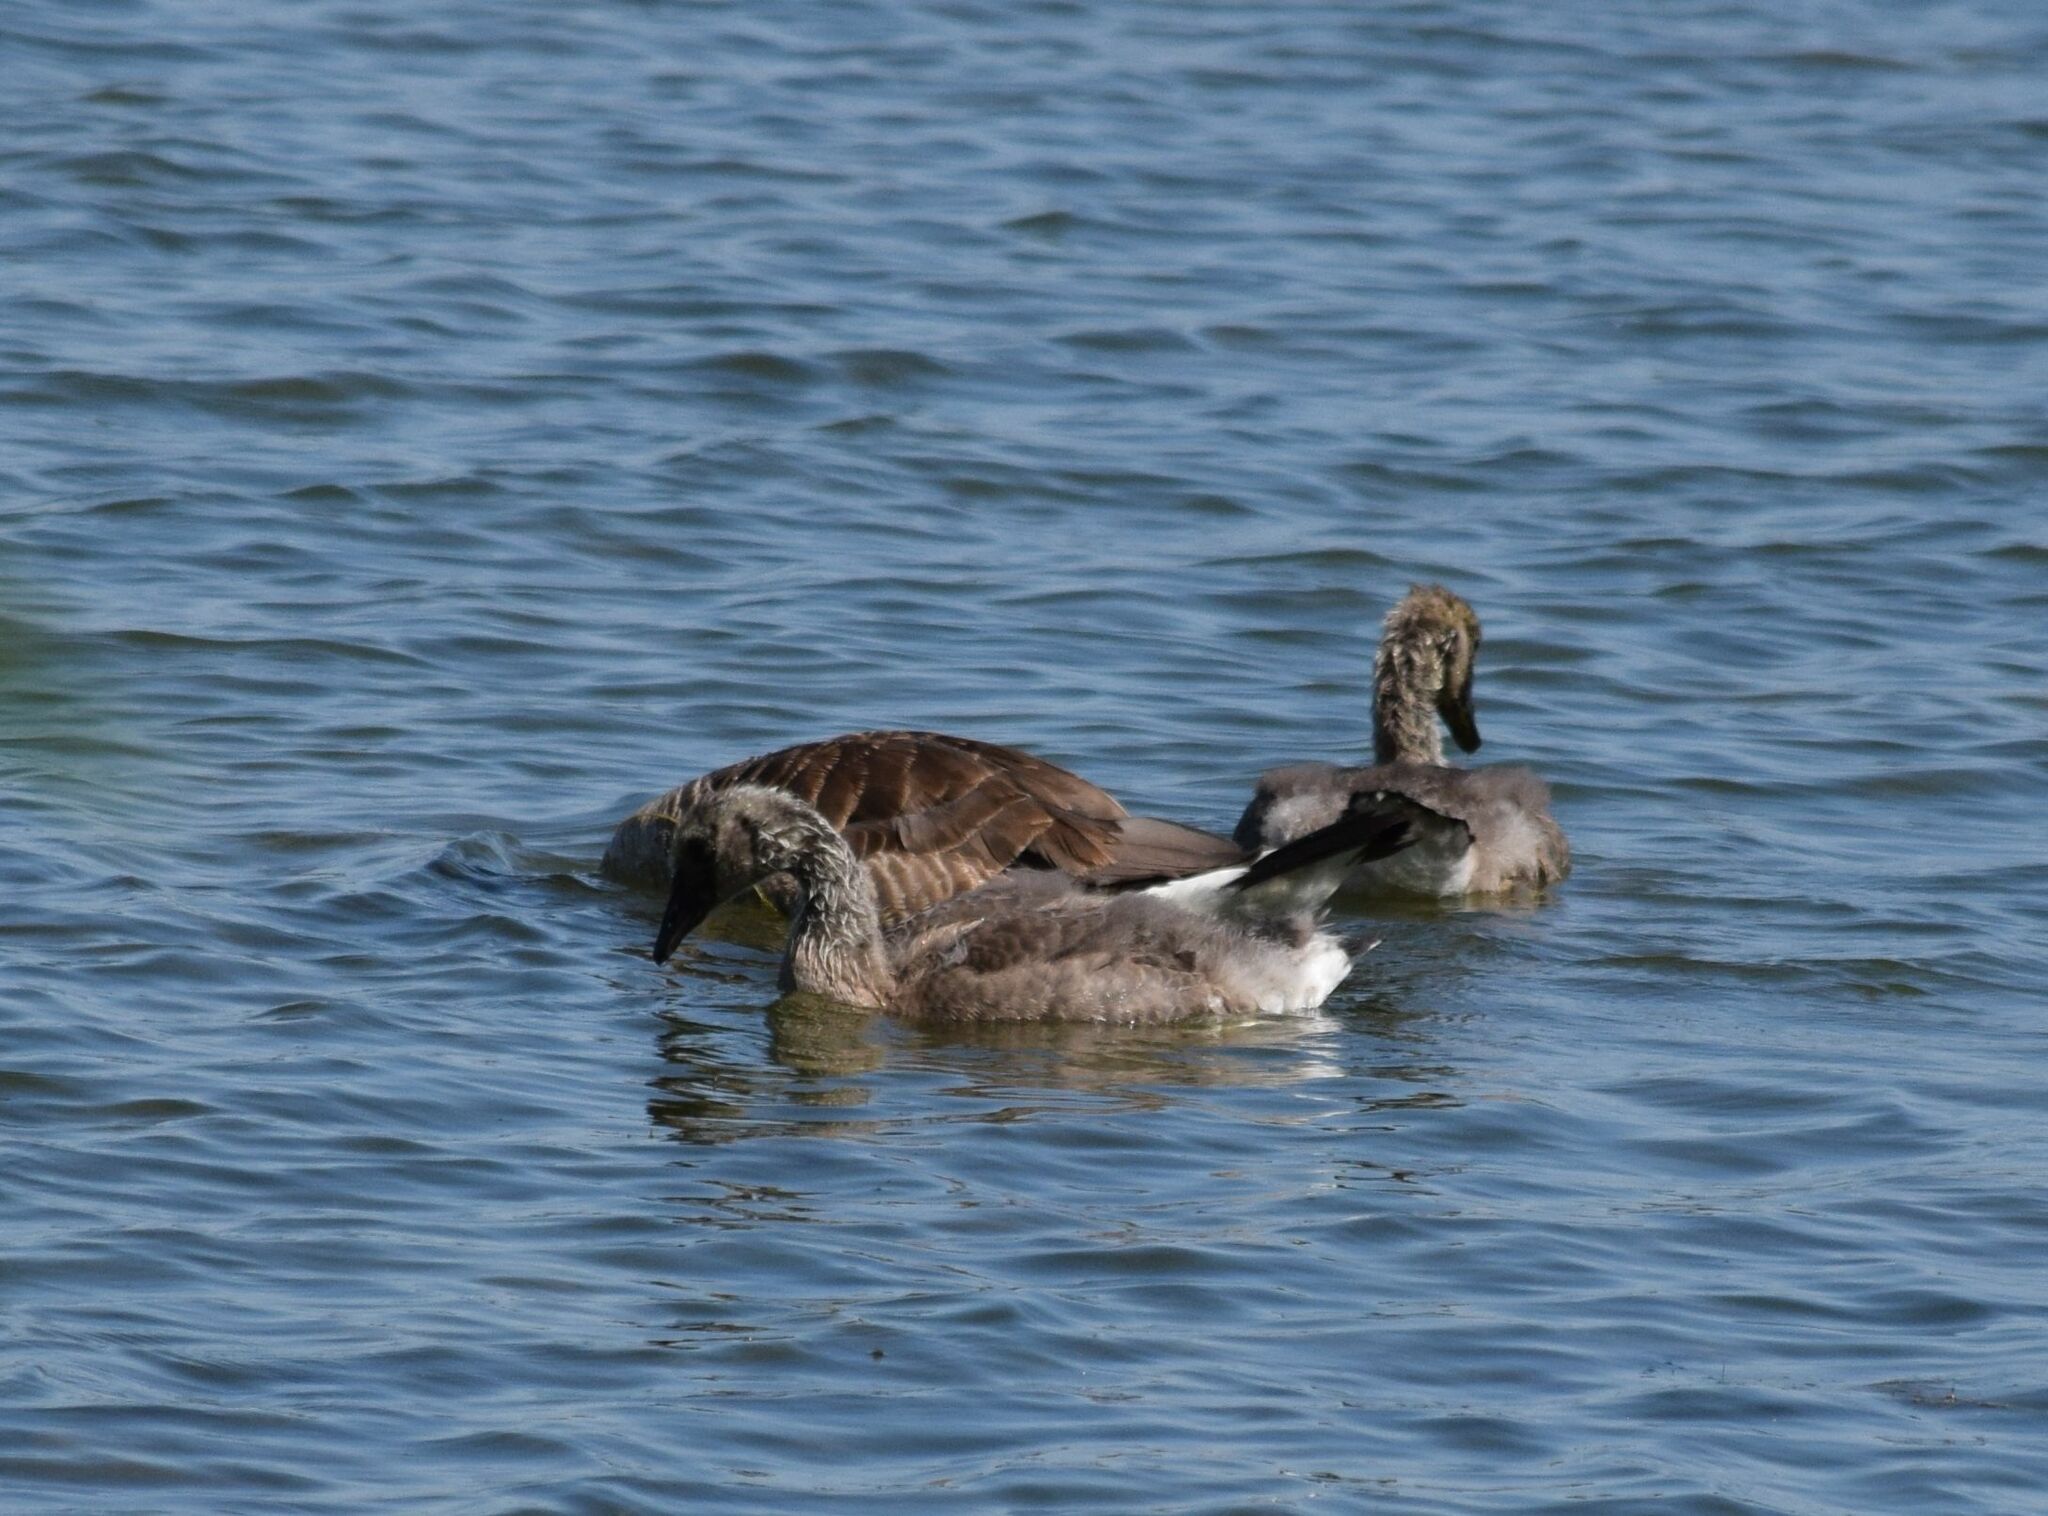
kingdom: Animalia
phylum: Chordata
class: Aves
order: Anseriformes
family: Anatidae
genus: Branta
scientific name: Branta canadensis
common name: Canada goose
